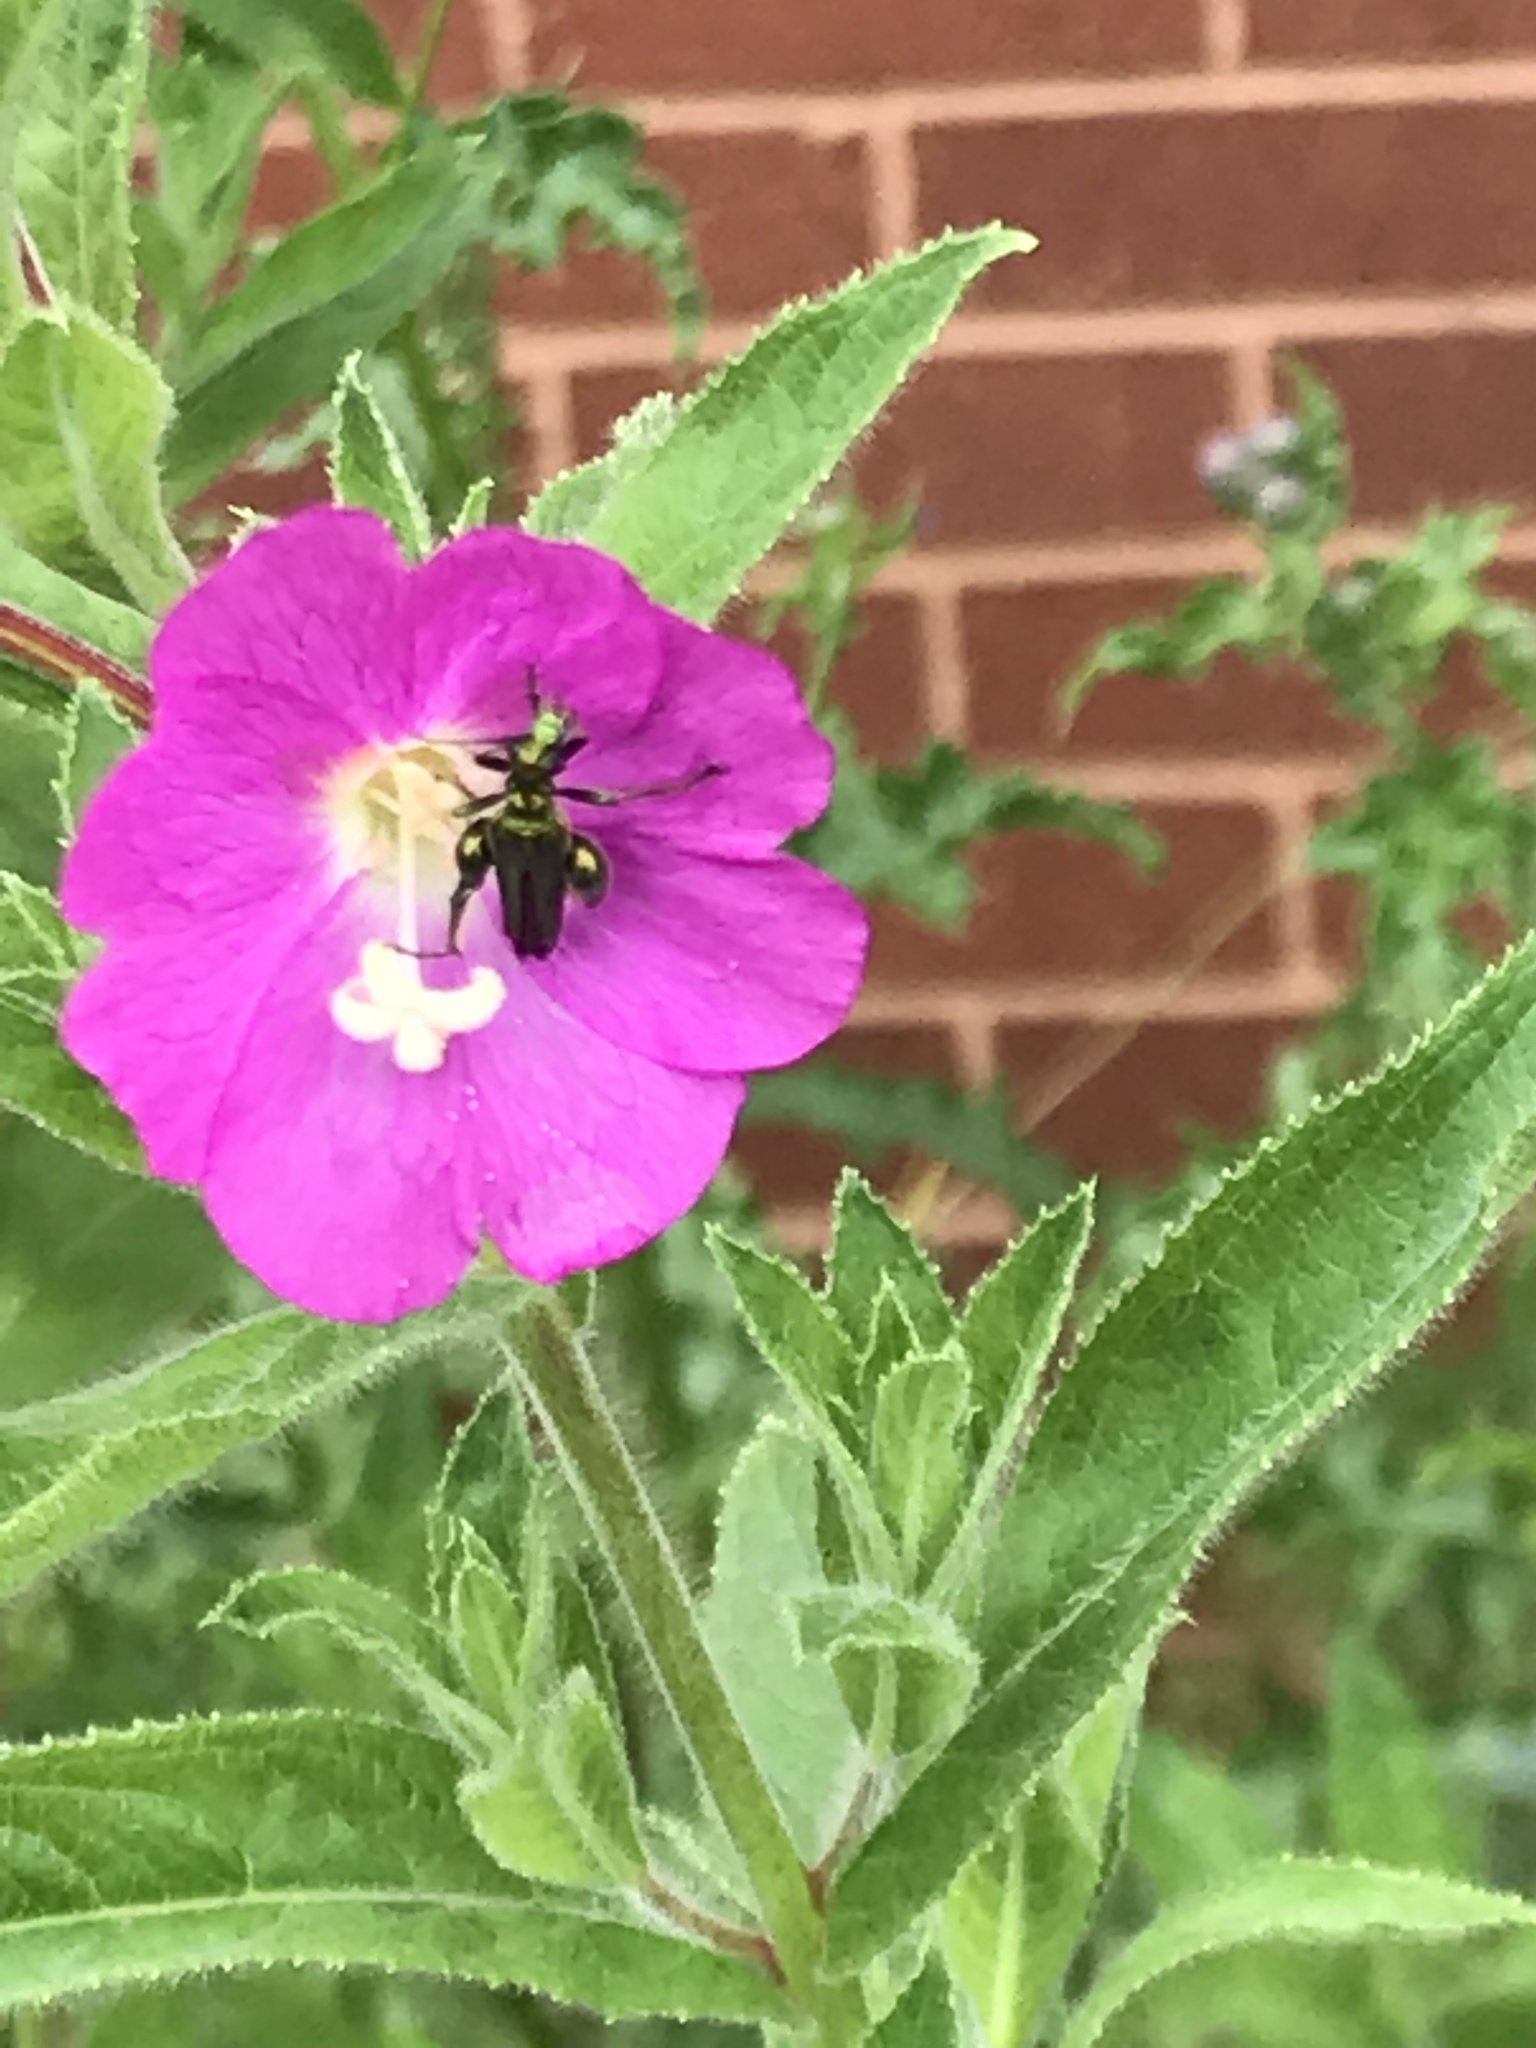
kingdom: Animalia
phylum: Arthropoda
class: Insecta
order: Coleoptera
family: Oedemeridae
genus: Oedemera
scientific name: Oedemera nobilis
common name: Swollen-thighed beetle
